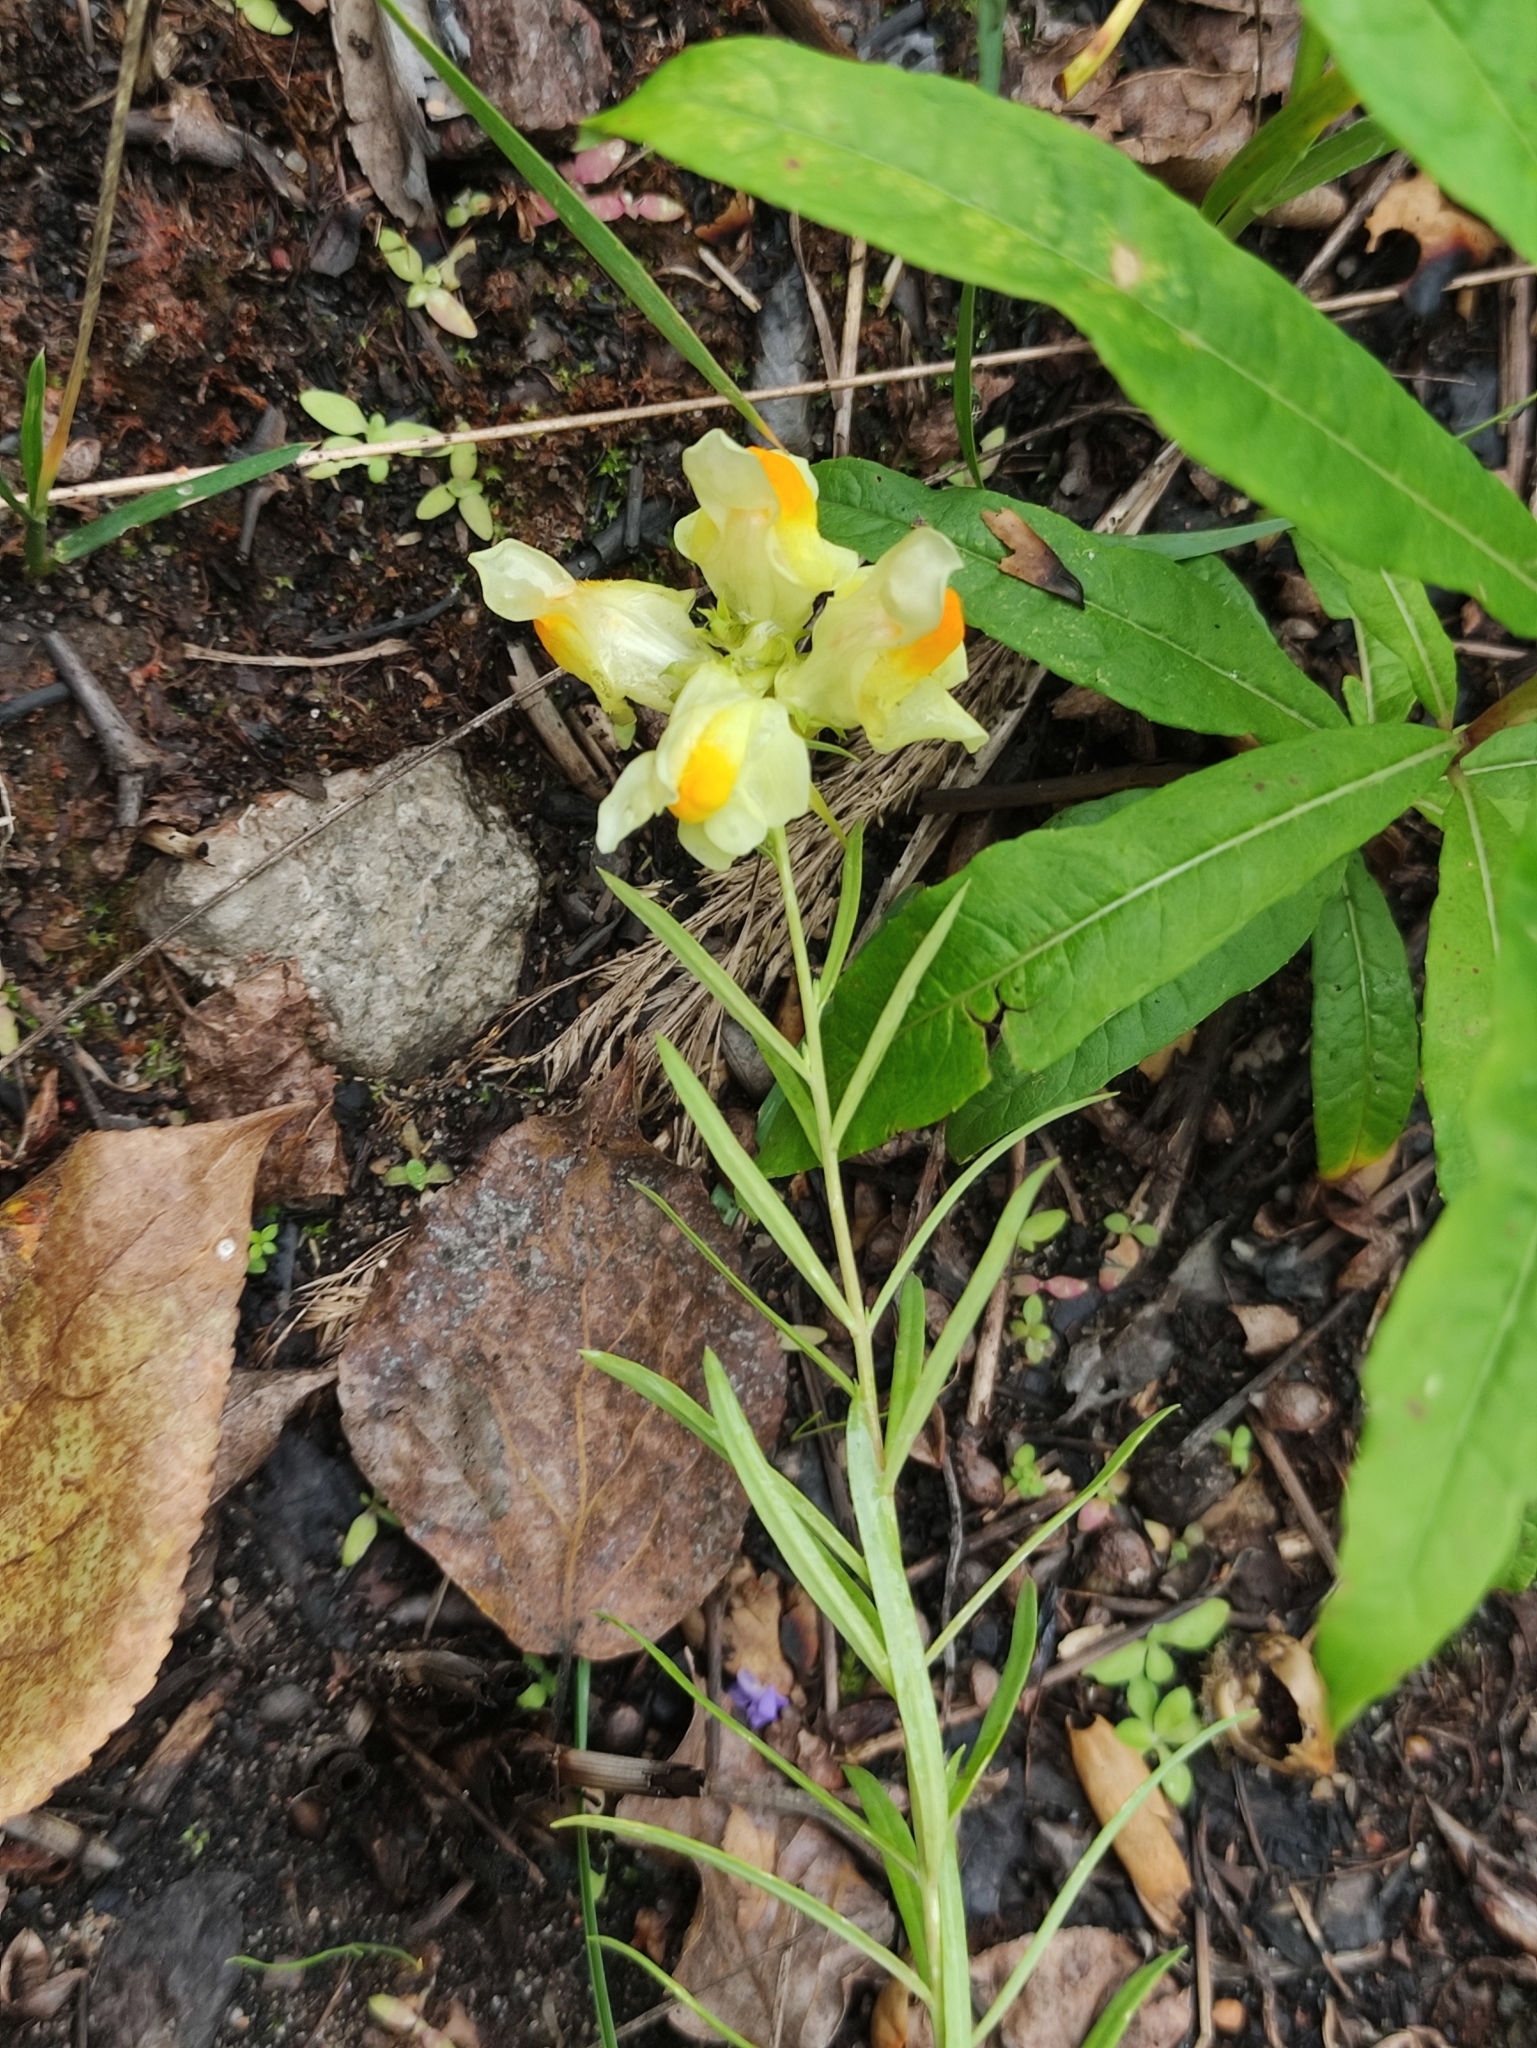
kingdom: Plantae
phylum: Tracheophyta
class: Magnoliopsida
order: Lamiales
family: Plantaginaceae
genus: Linaria
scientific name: Linaria vulgaris
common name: Butter and eggs
